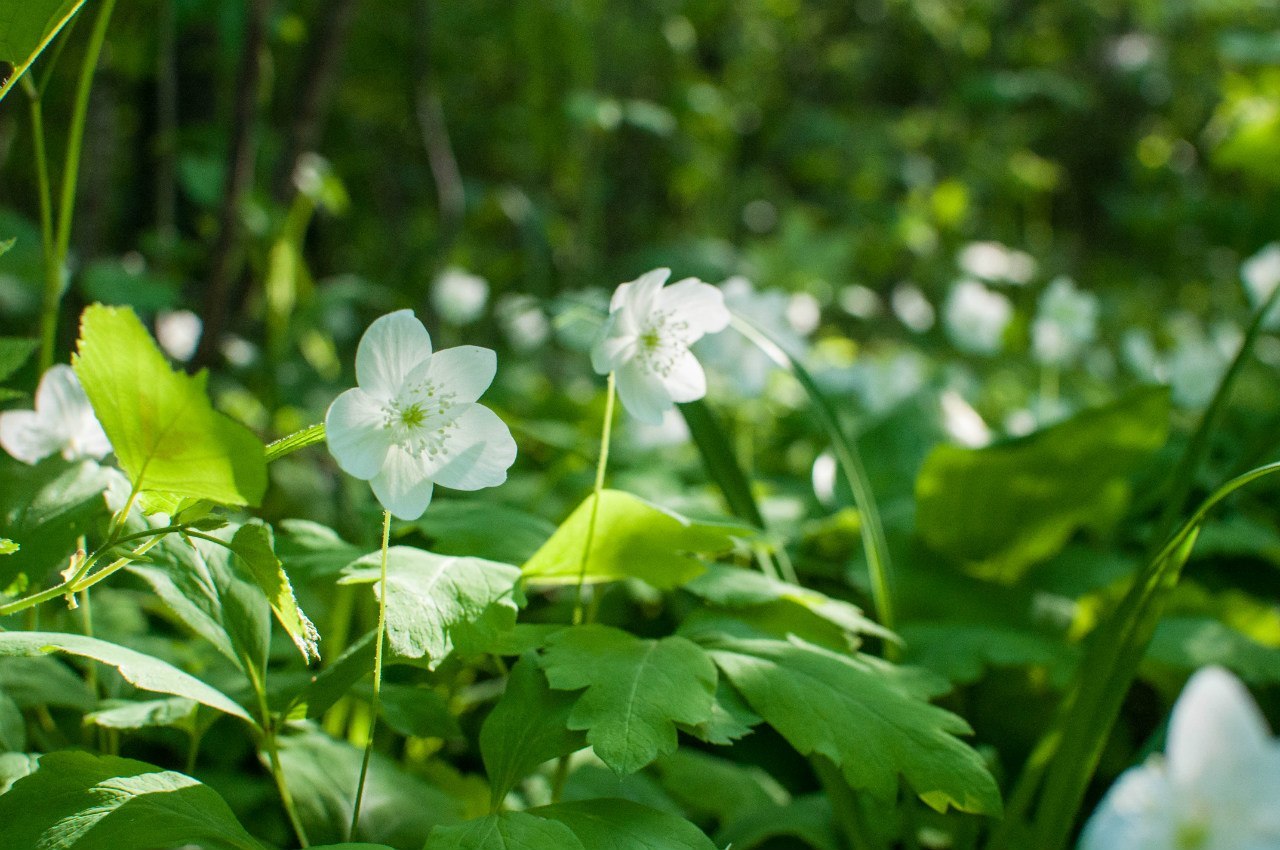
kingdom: Plantae
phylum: Tracheophyta
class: Magnoliopsida
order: Ranunculales
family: Ranunculaceae
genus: Anemone
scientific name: Anemone udensis
